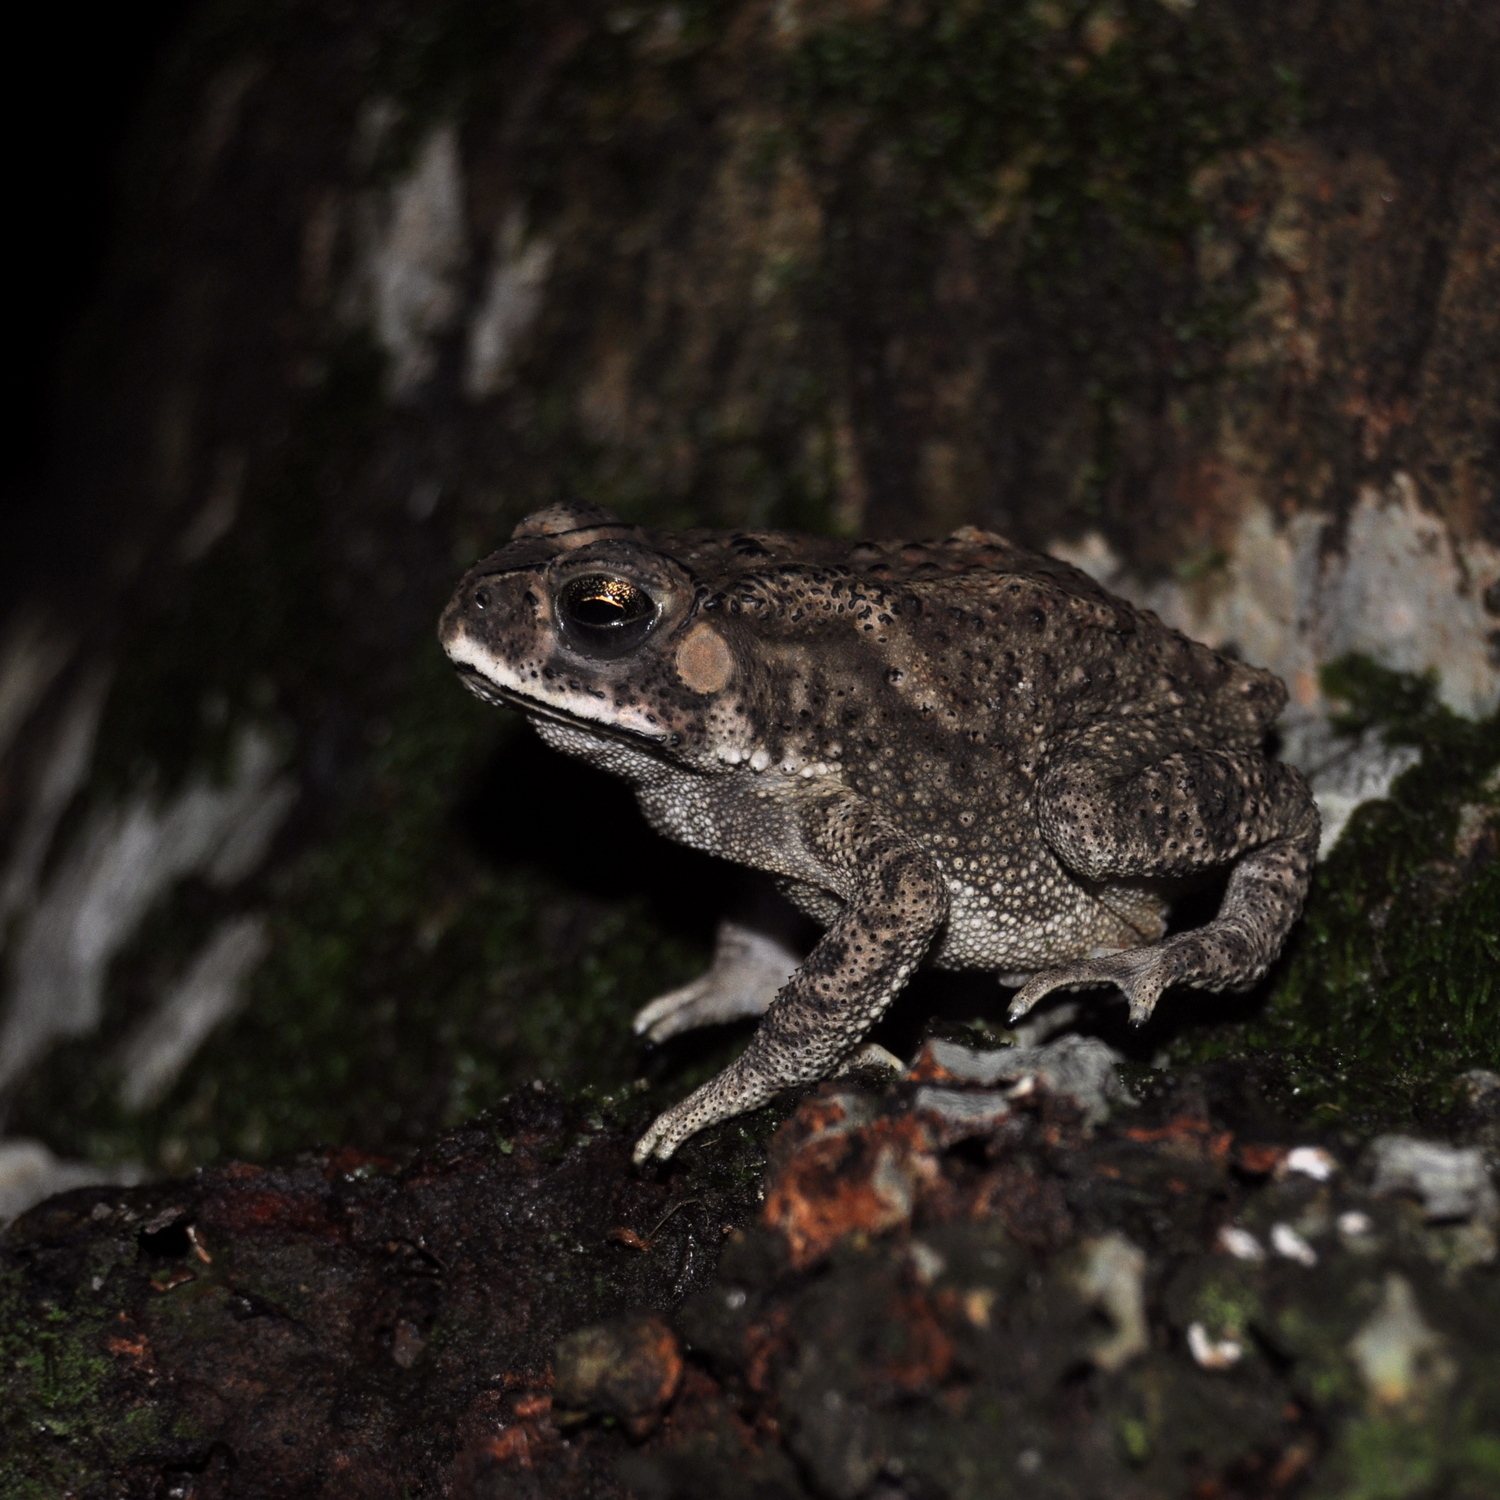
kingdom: Animalia
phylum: Chordata
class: Amphibia
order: Anura
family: Bufonidae
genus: Duttaphrynus
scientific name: Duttaphrynus melanostictus
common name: Common sunda toad
